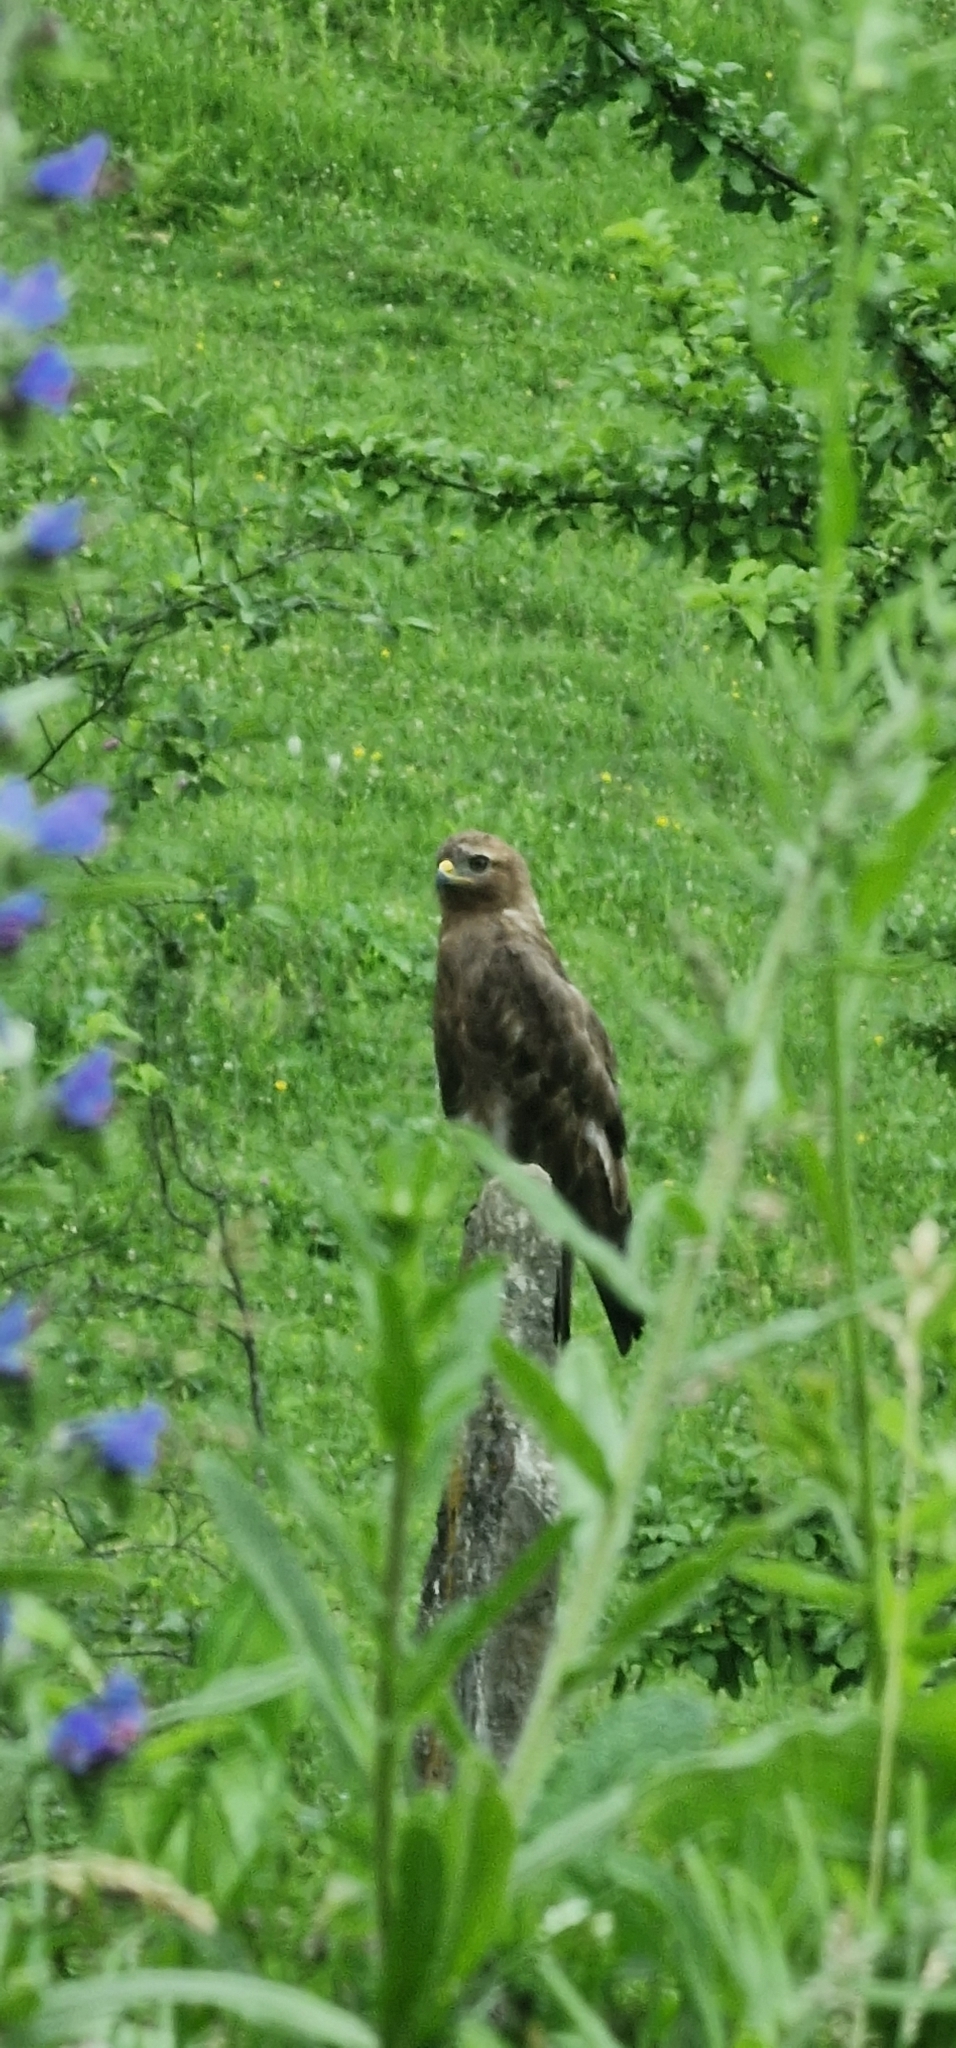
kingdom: Animalia
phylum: Chordata
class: Aves
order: Accipitriformes
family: Accipitridae
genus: Buteo
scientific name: Buteo buteo
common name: Common buzzard
